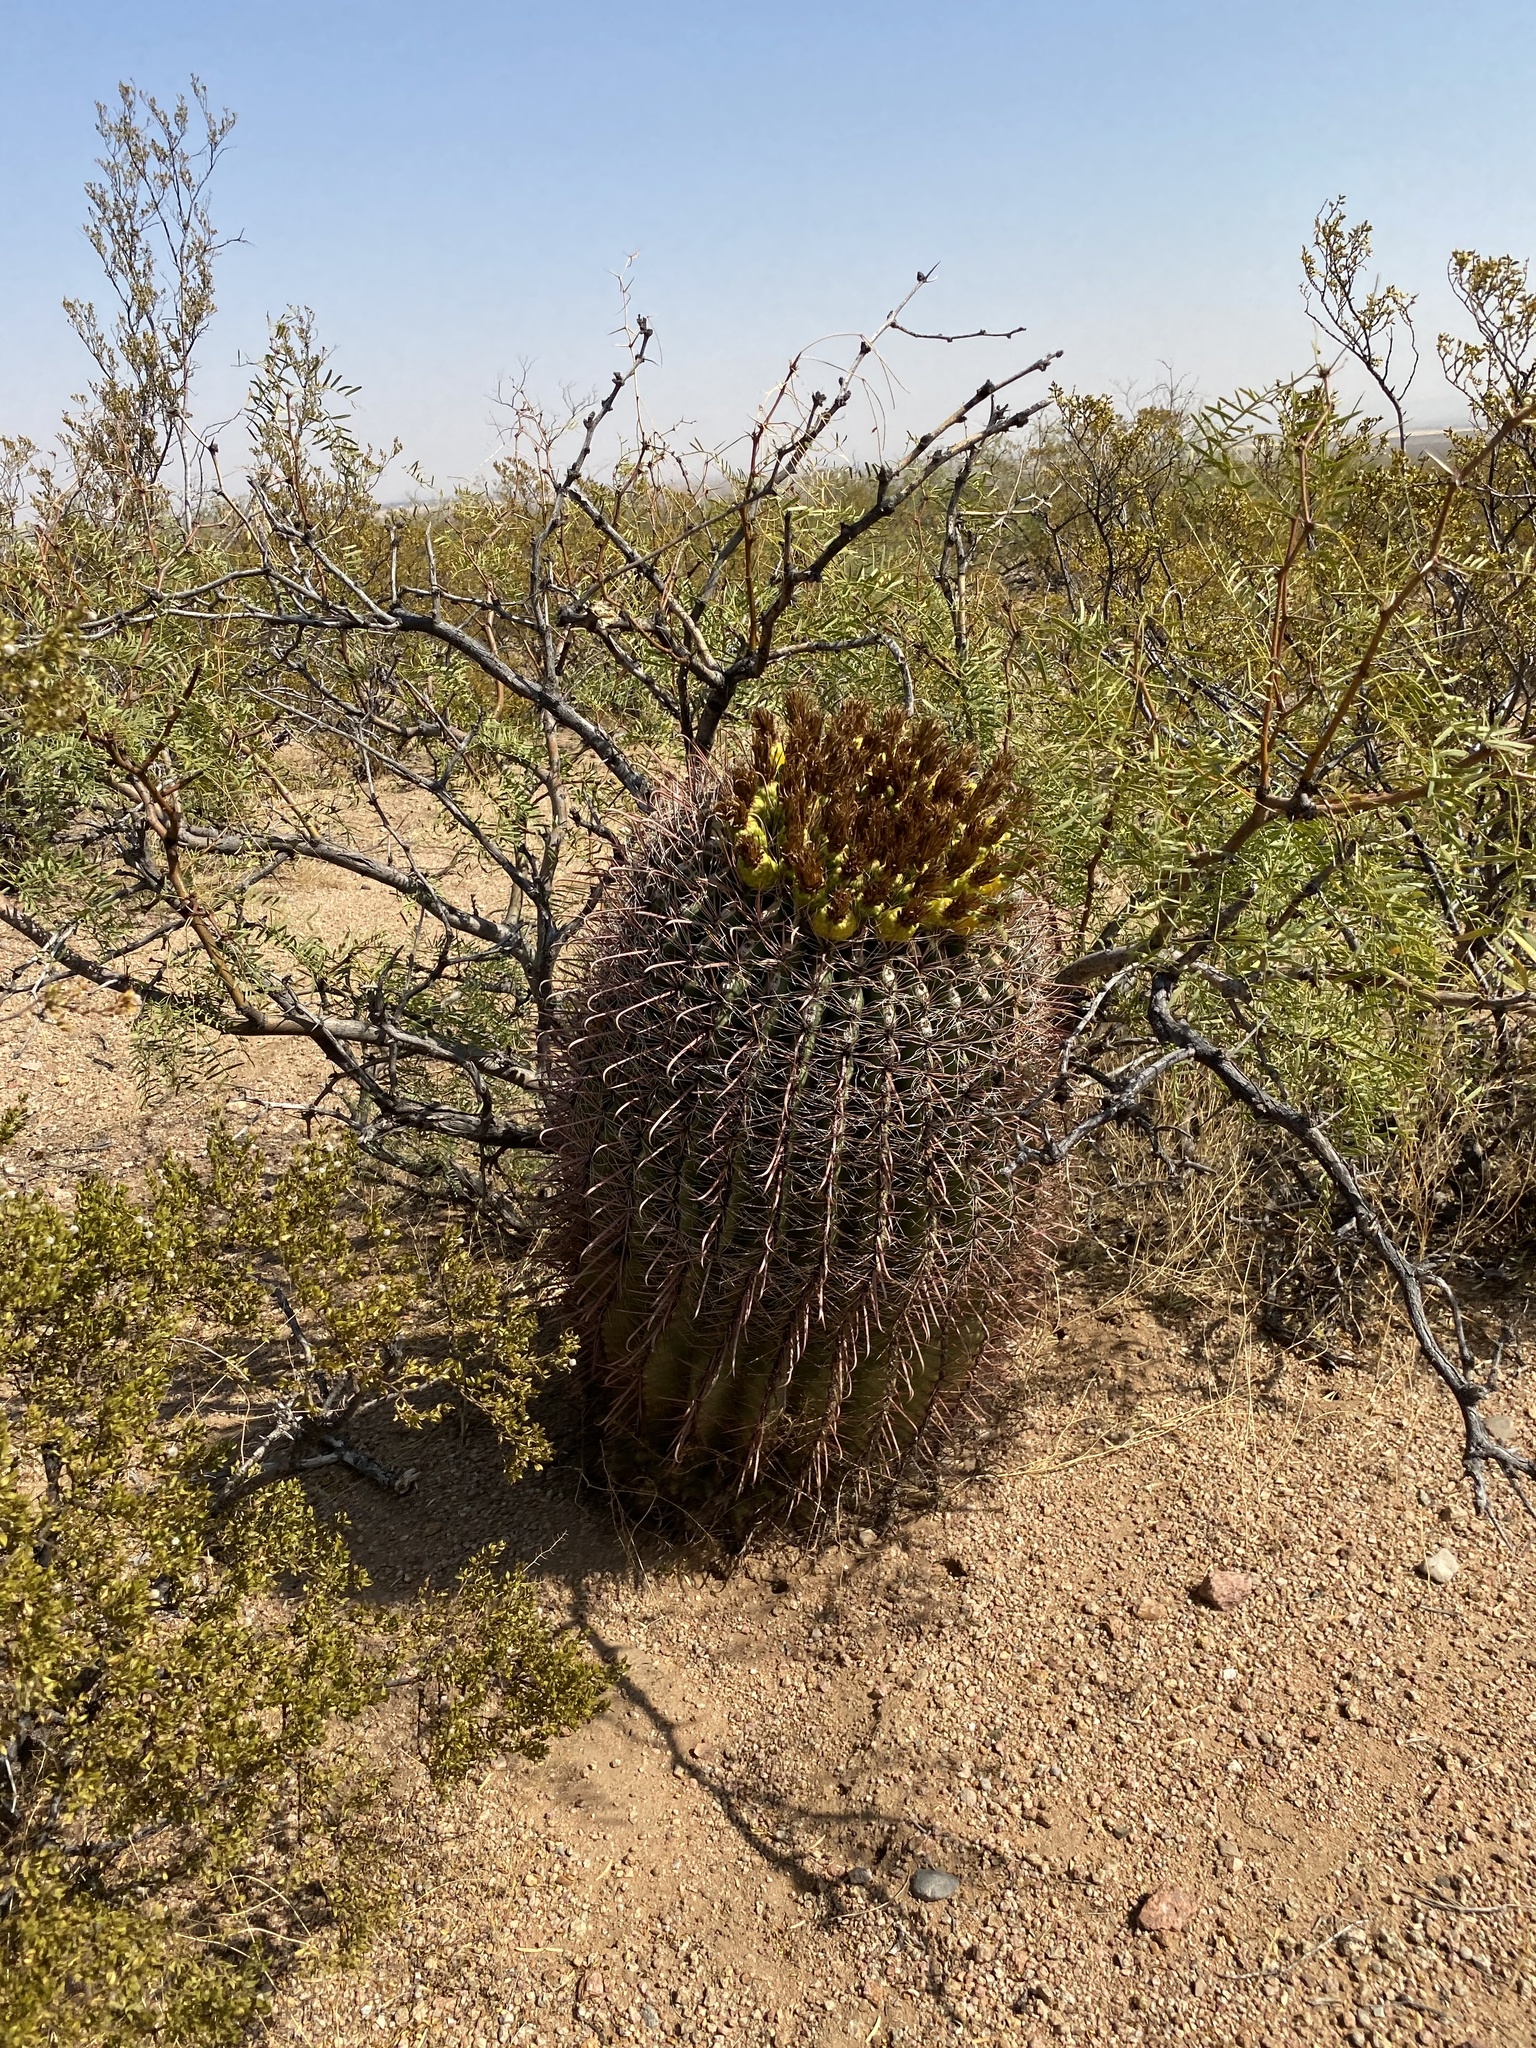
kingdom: Plantae
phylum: Tracheophyta
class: Magnoliopsida
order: Caryophyllales
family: Cactaceae
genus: Ferocactus
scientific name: Ferocactus wislizeni
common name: Candy barrel cactus
